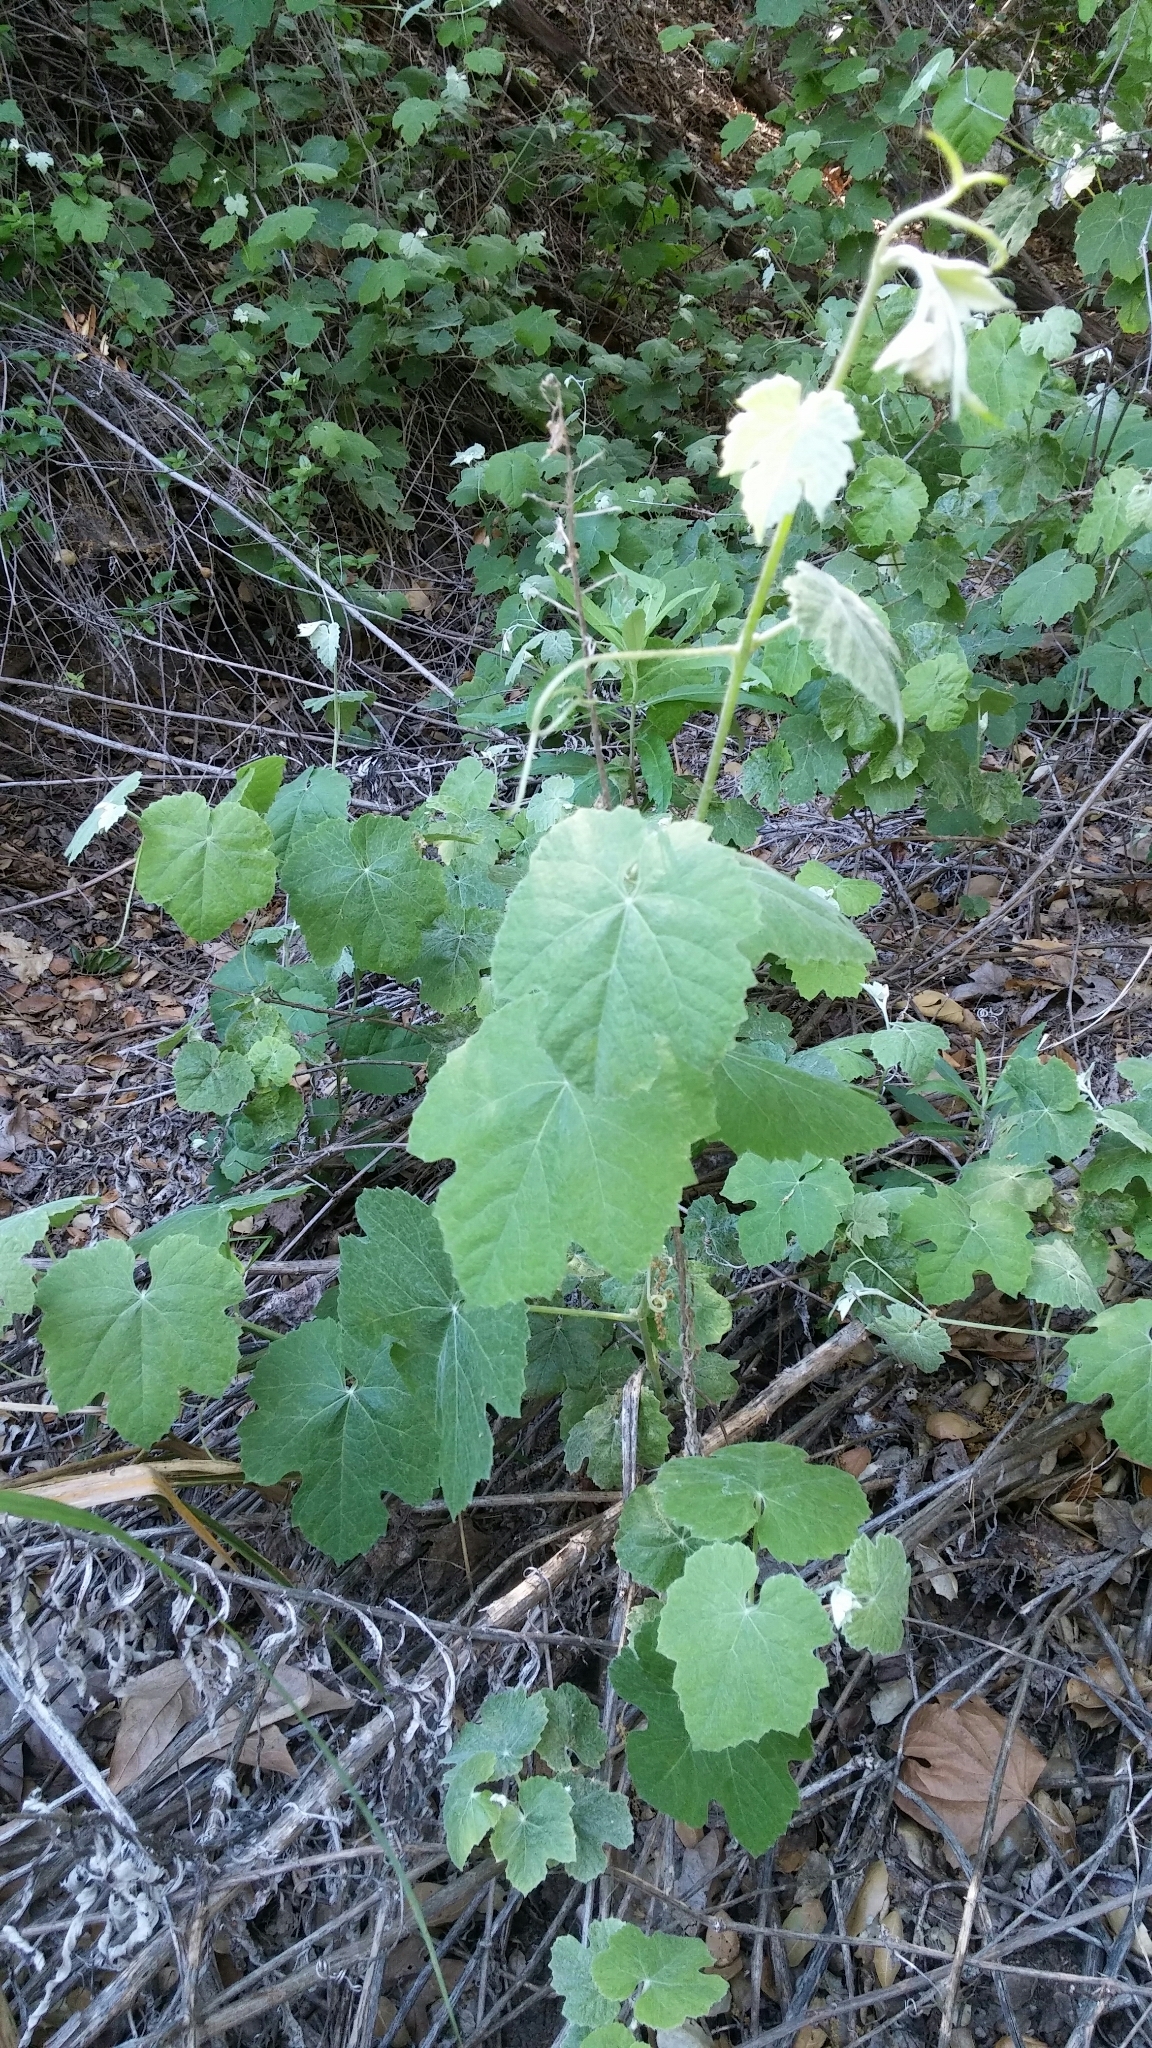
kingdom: Plantae
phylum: Tracheophyta
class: Magnoliopsida
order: Vitales
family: Vitaceae
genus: Vitis
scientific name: Vitis girdiana
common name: Desert wild grape
